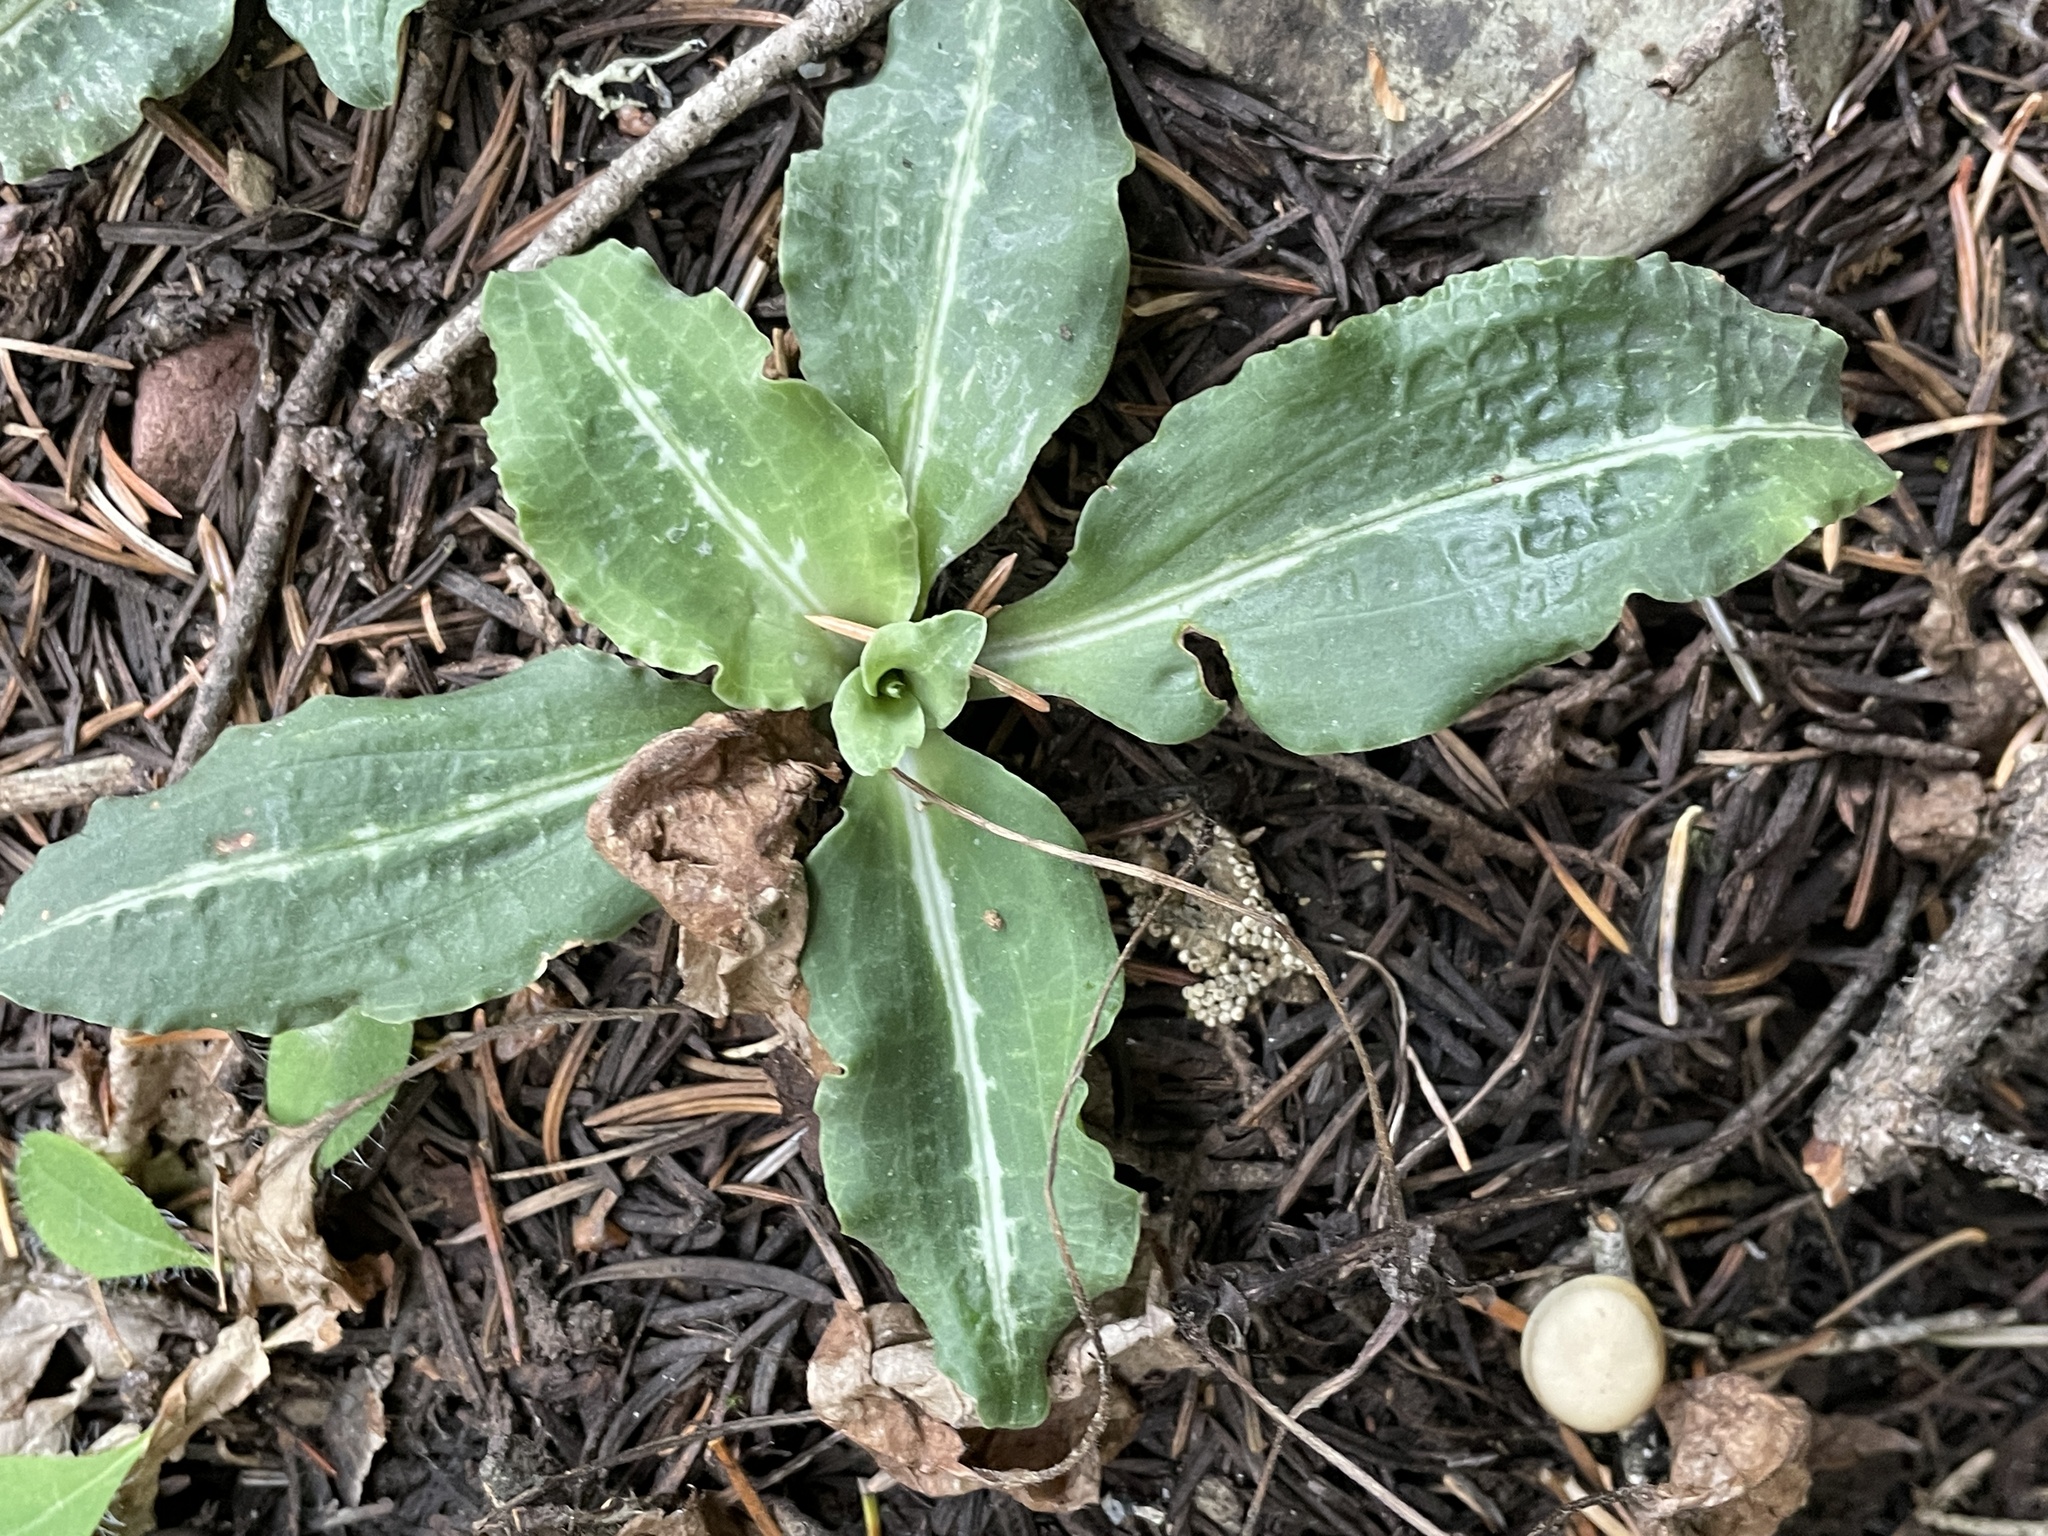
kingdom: Plantae
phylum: Tracheophyta
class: Liliopsida
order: Asparagales
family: Orchidaceae
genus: Goodyera
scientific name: Goodyera oblongifolia
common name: Giant rattlesnake-plantain
